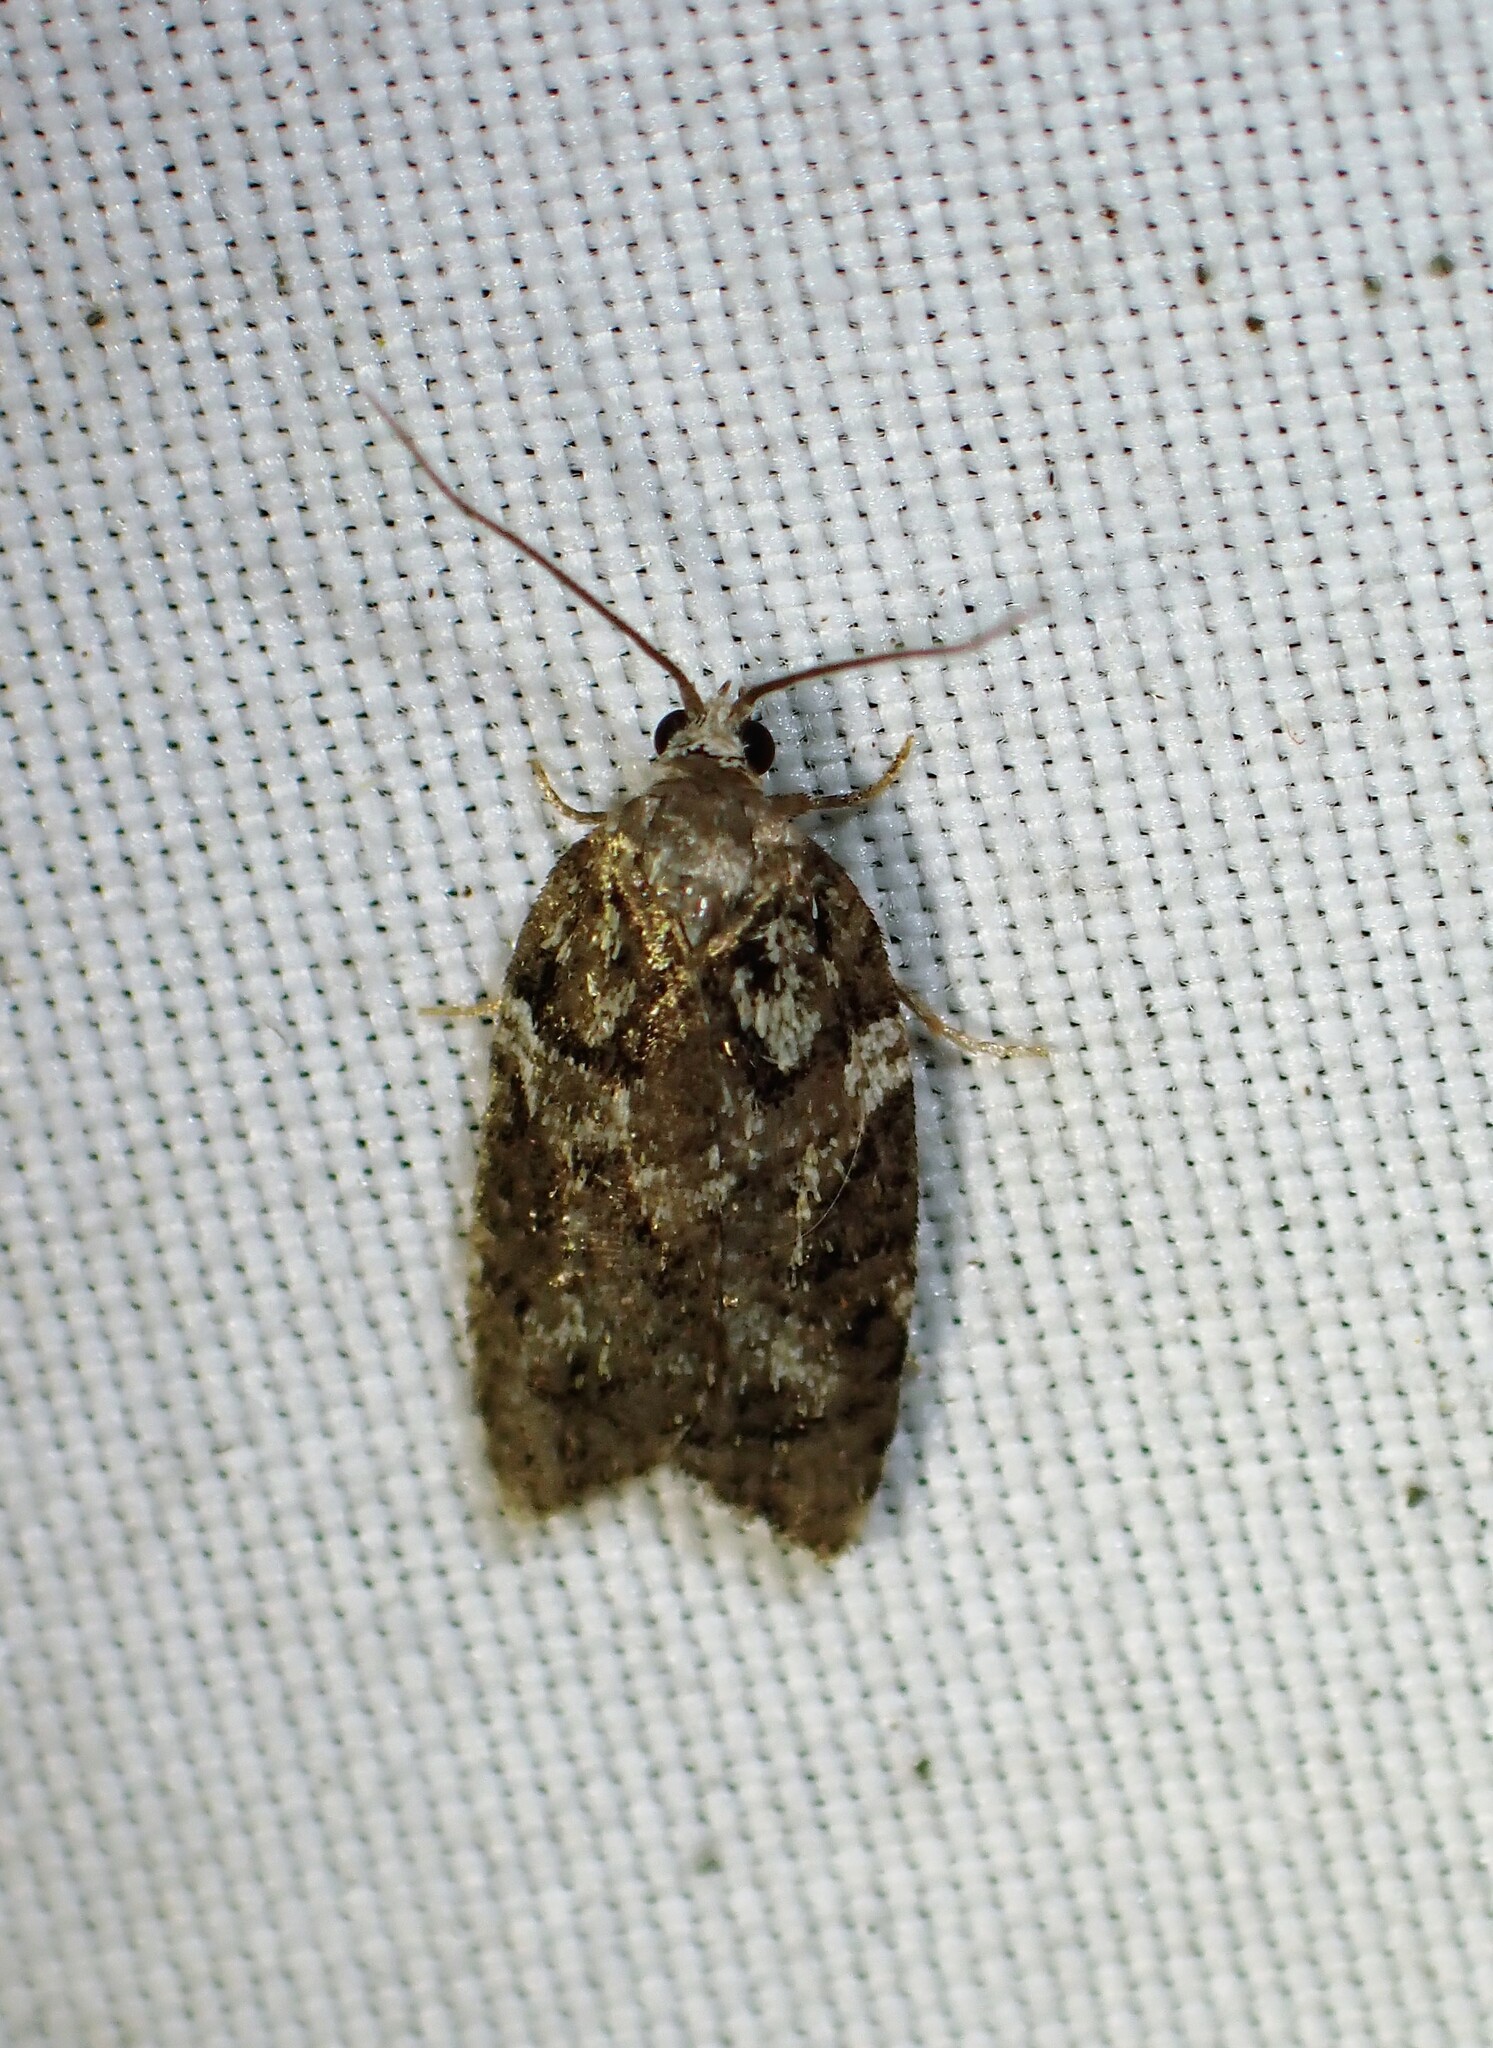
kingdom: Animalia
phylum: Arthropoda
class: Insecta
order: Lepidoptera
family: Tortricidae
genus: Acleris
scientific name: Acleris variana
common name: Eastern black-headed budworm moth
